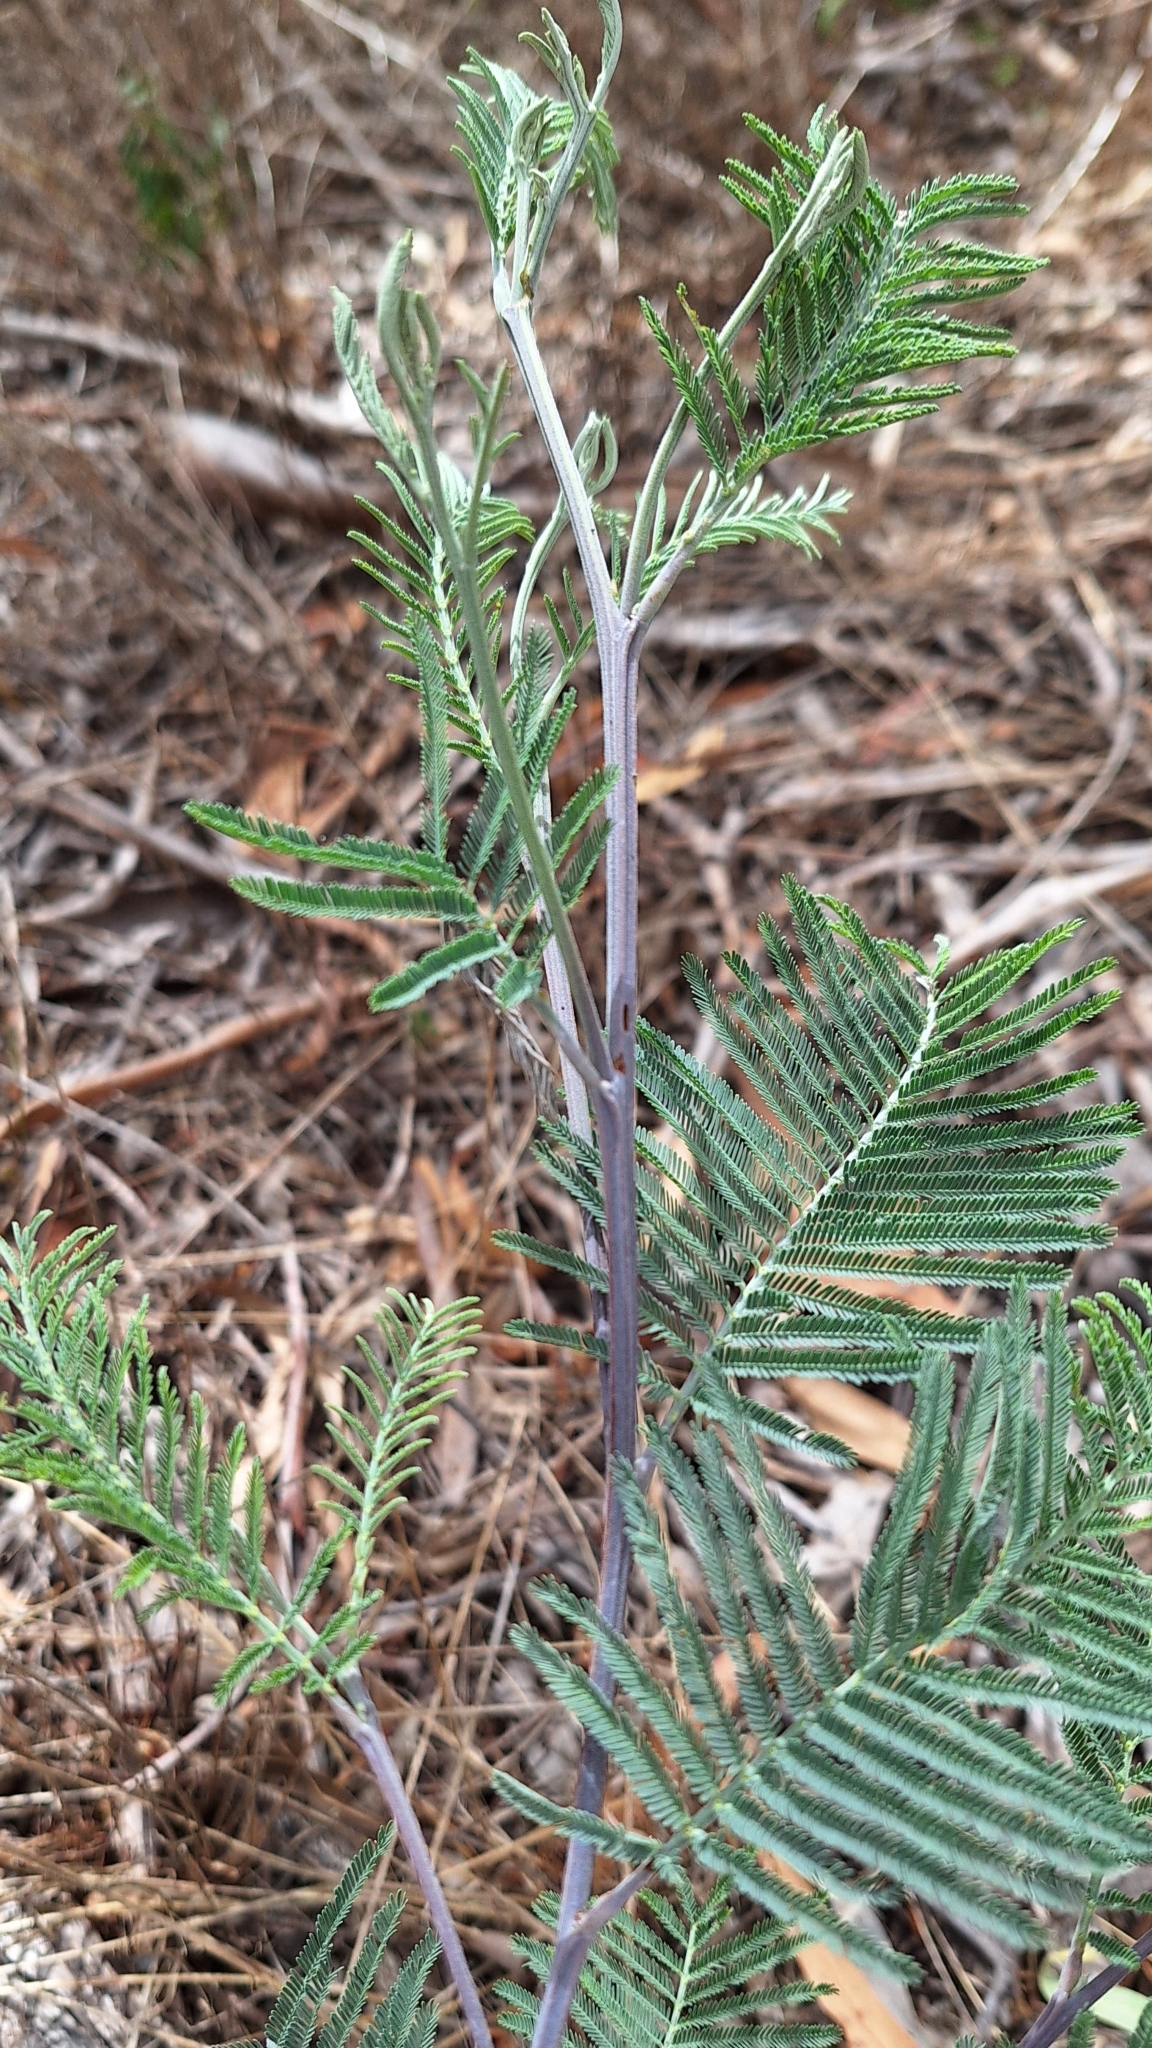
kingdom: Plantae
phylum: Tracheophyta
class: Magnoliopsida
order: Fabales
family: Fabaceae
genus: Acacia
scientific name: Acacia dealbata
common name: Silver wattle
